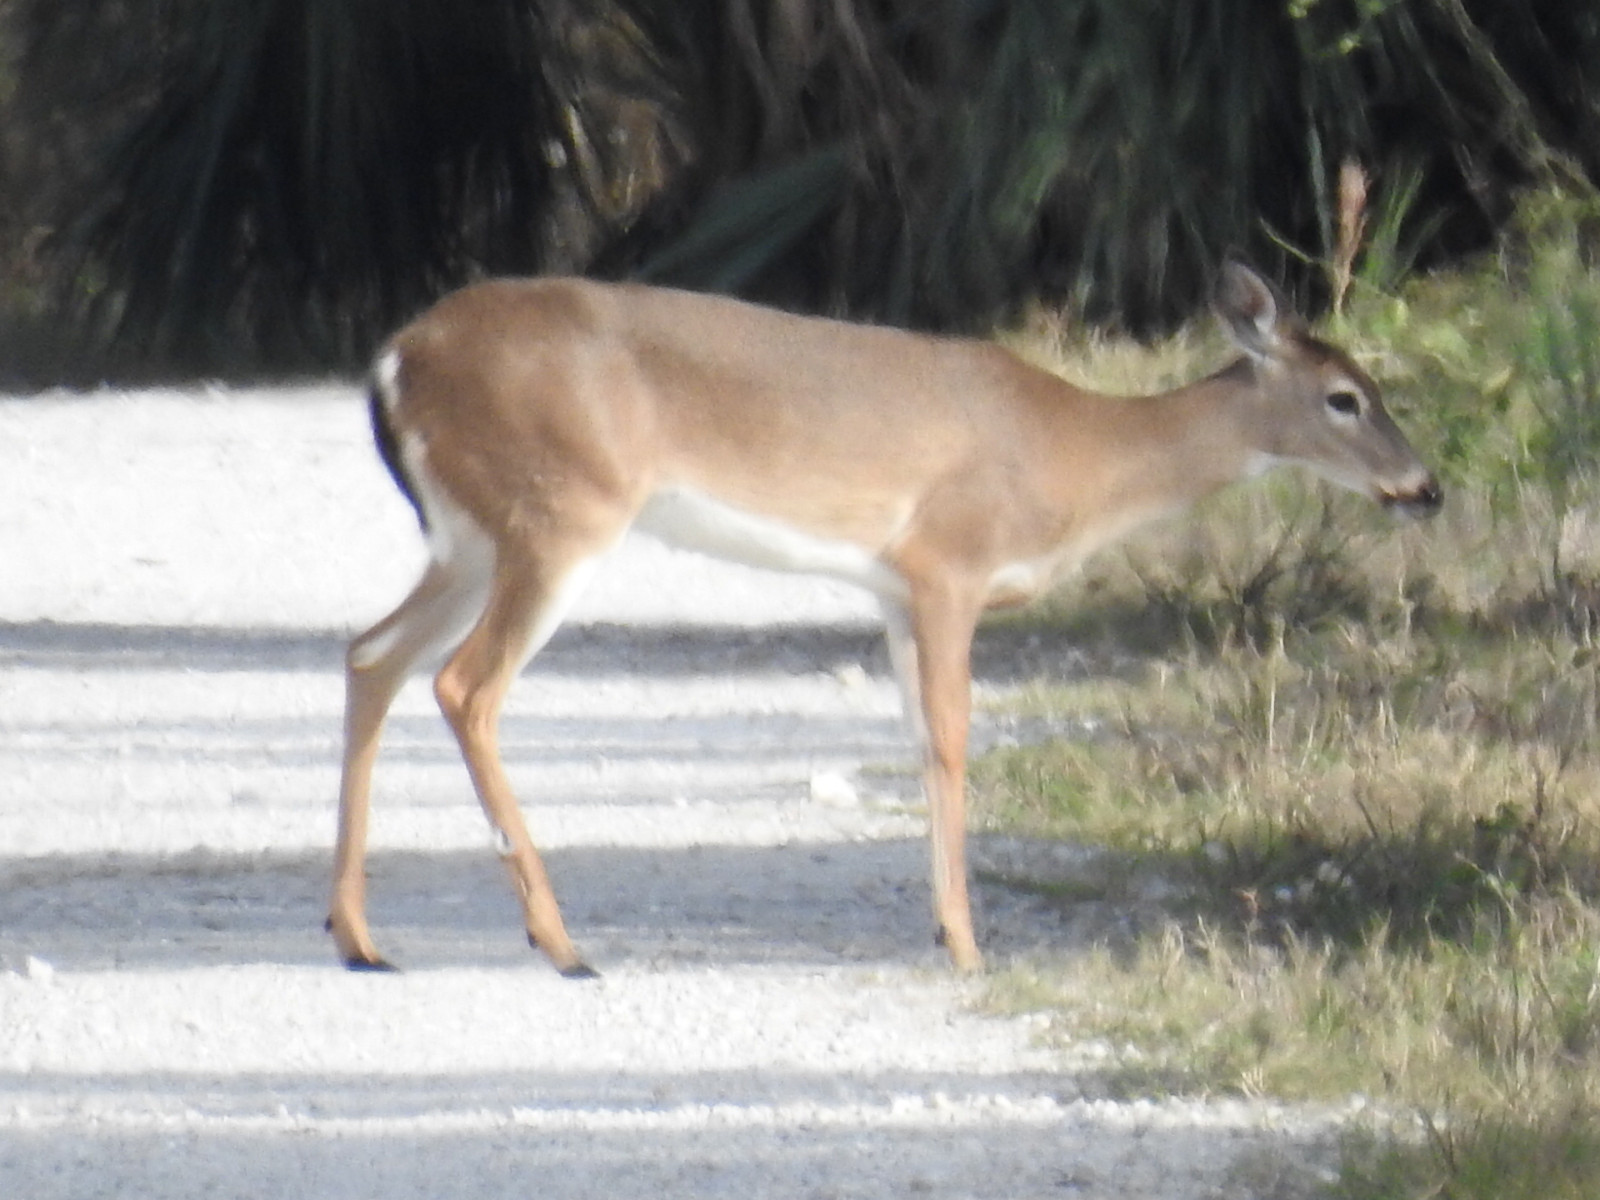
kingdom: Animalia
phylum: Chordata
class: Mammalia
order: Artiodactyla
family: Cervidae
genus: Odocoileus
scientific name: Odocoileus virginianus
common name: White-tailed deer
